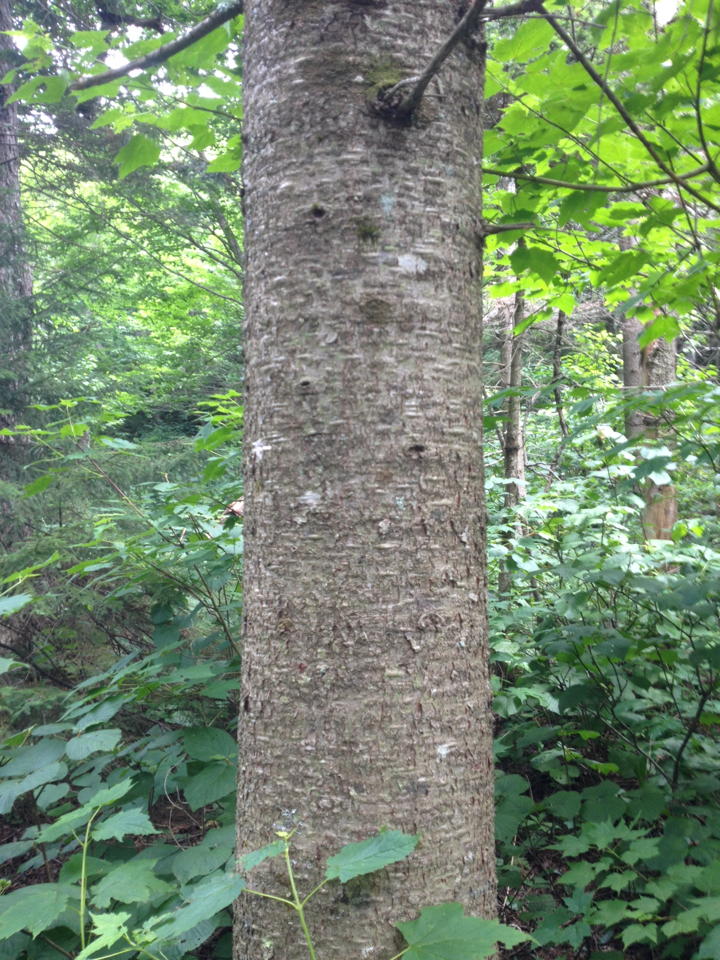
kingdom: Plantae
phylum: Tracheophyta
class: Pinopsida
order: Pinales
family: Pinaceae
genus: Abies
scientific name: Abies balsamea
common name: Balsam fir
